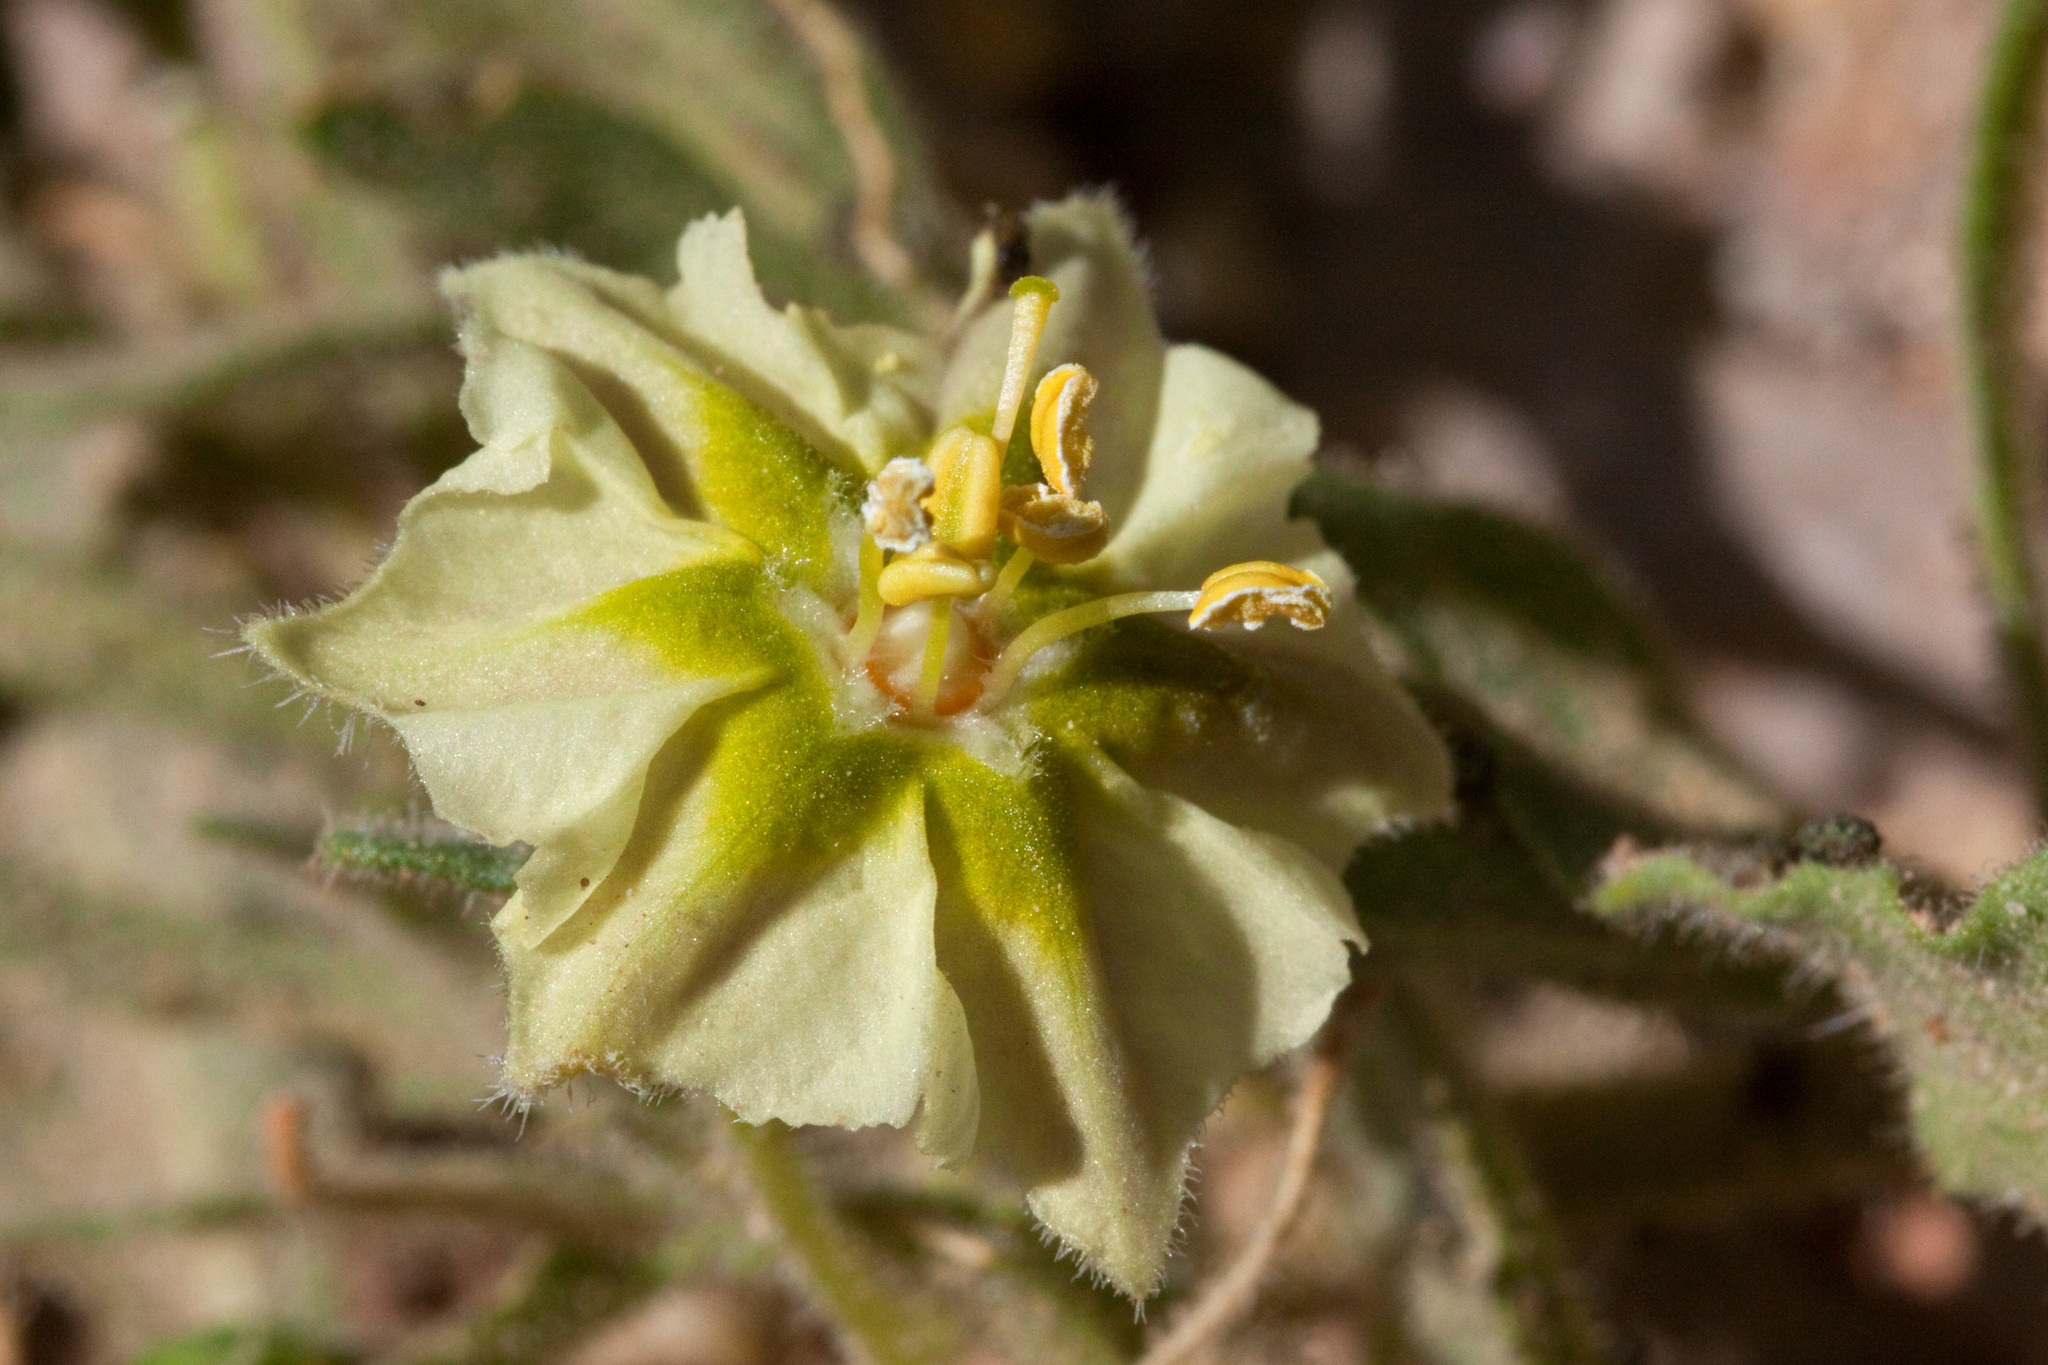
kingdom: Plantae
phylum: Tracheophyta
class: Magnoliopsida
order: Solanales
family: Solanaceae
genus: Chamaesaracha
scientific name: Chamaesaracha sordida
